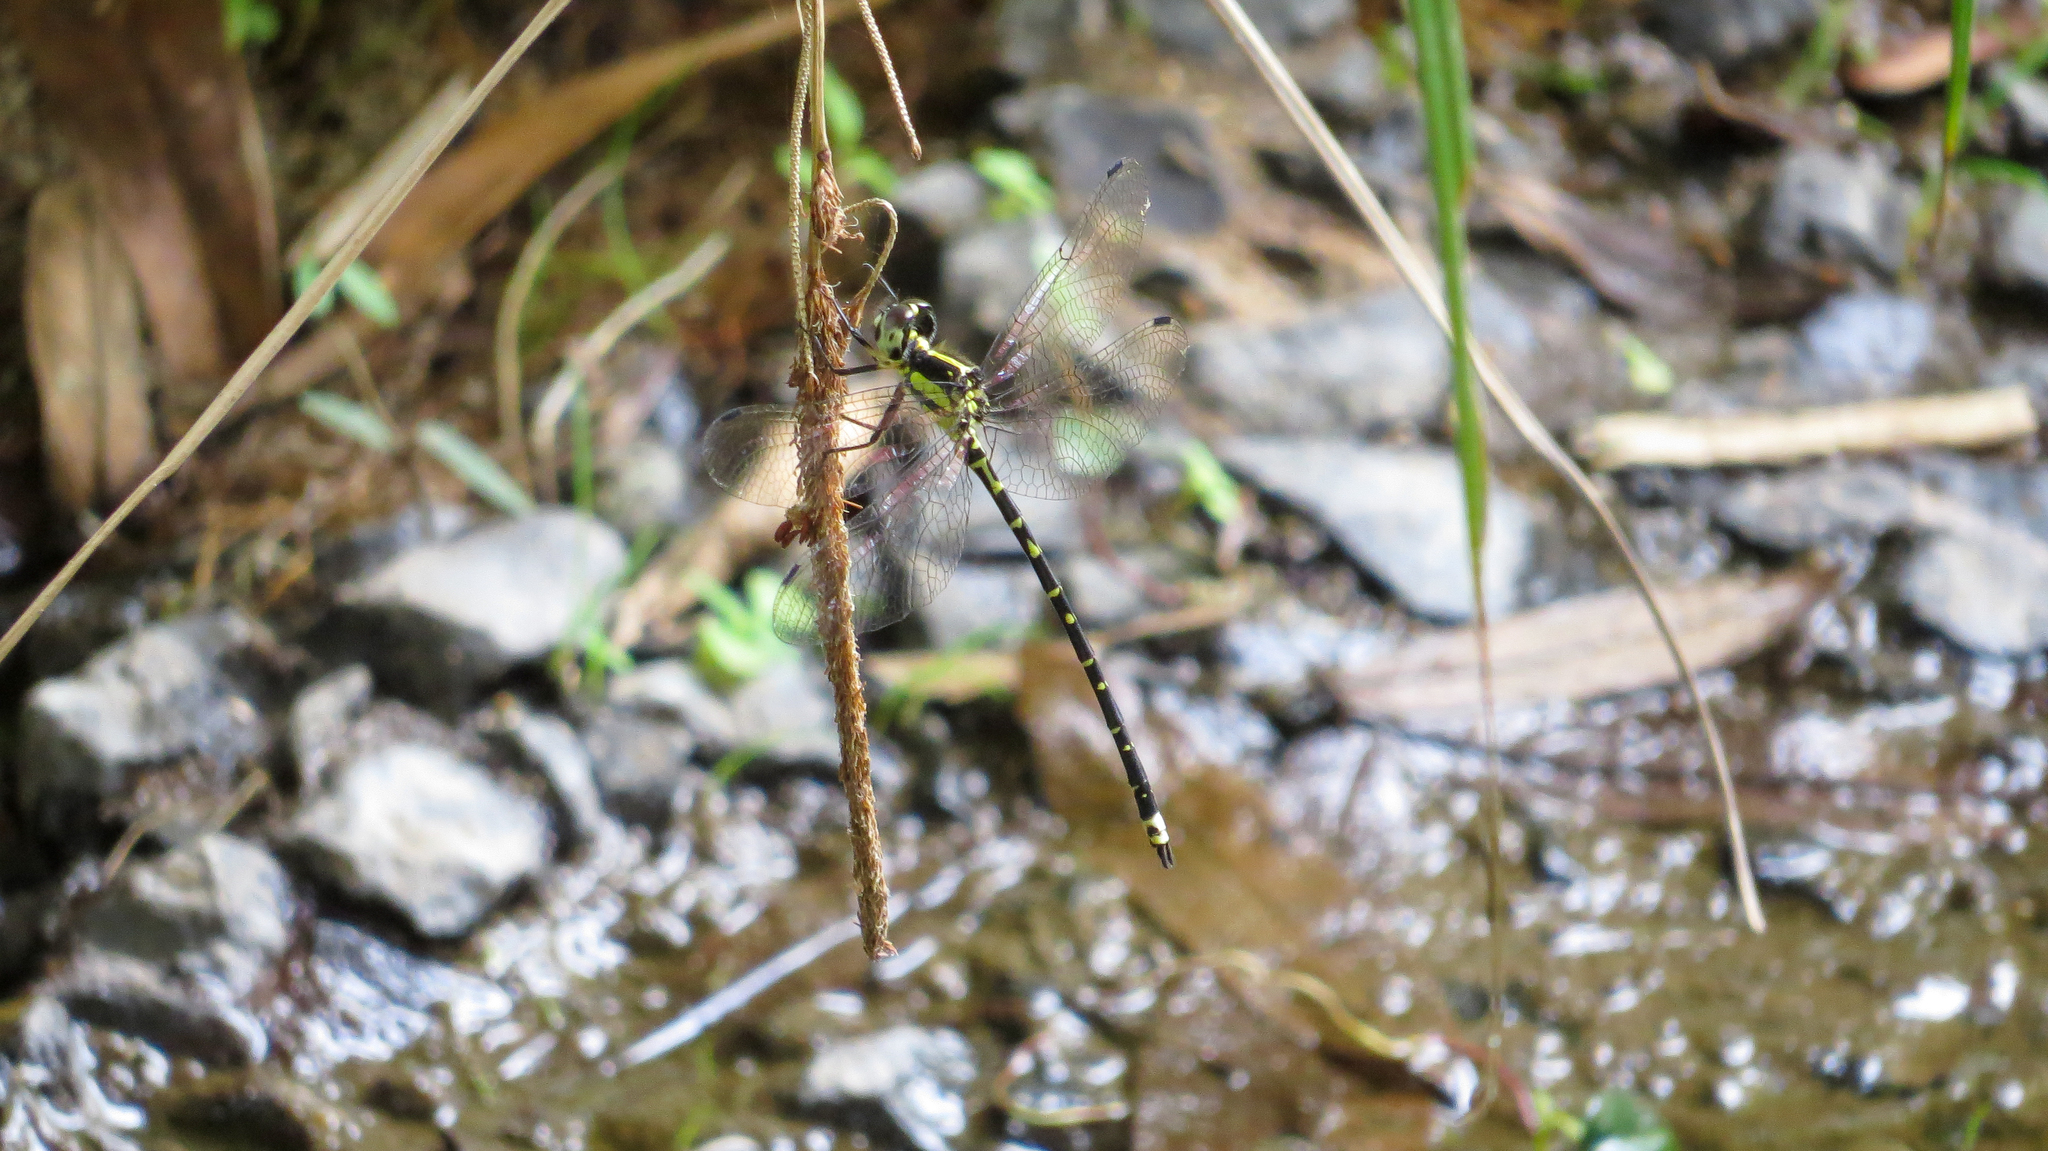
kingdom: Animalia
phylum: Arthropoda
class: Insecta
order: Odonata
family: Synthemistidae
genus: Choristhemis
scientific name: Choristhemis flavoterminata
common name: Yellow-tipped tigertail
